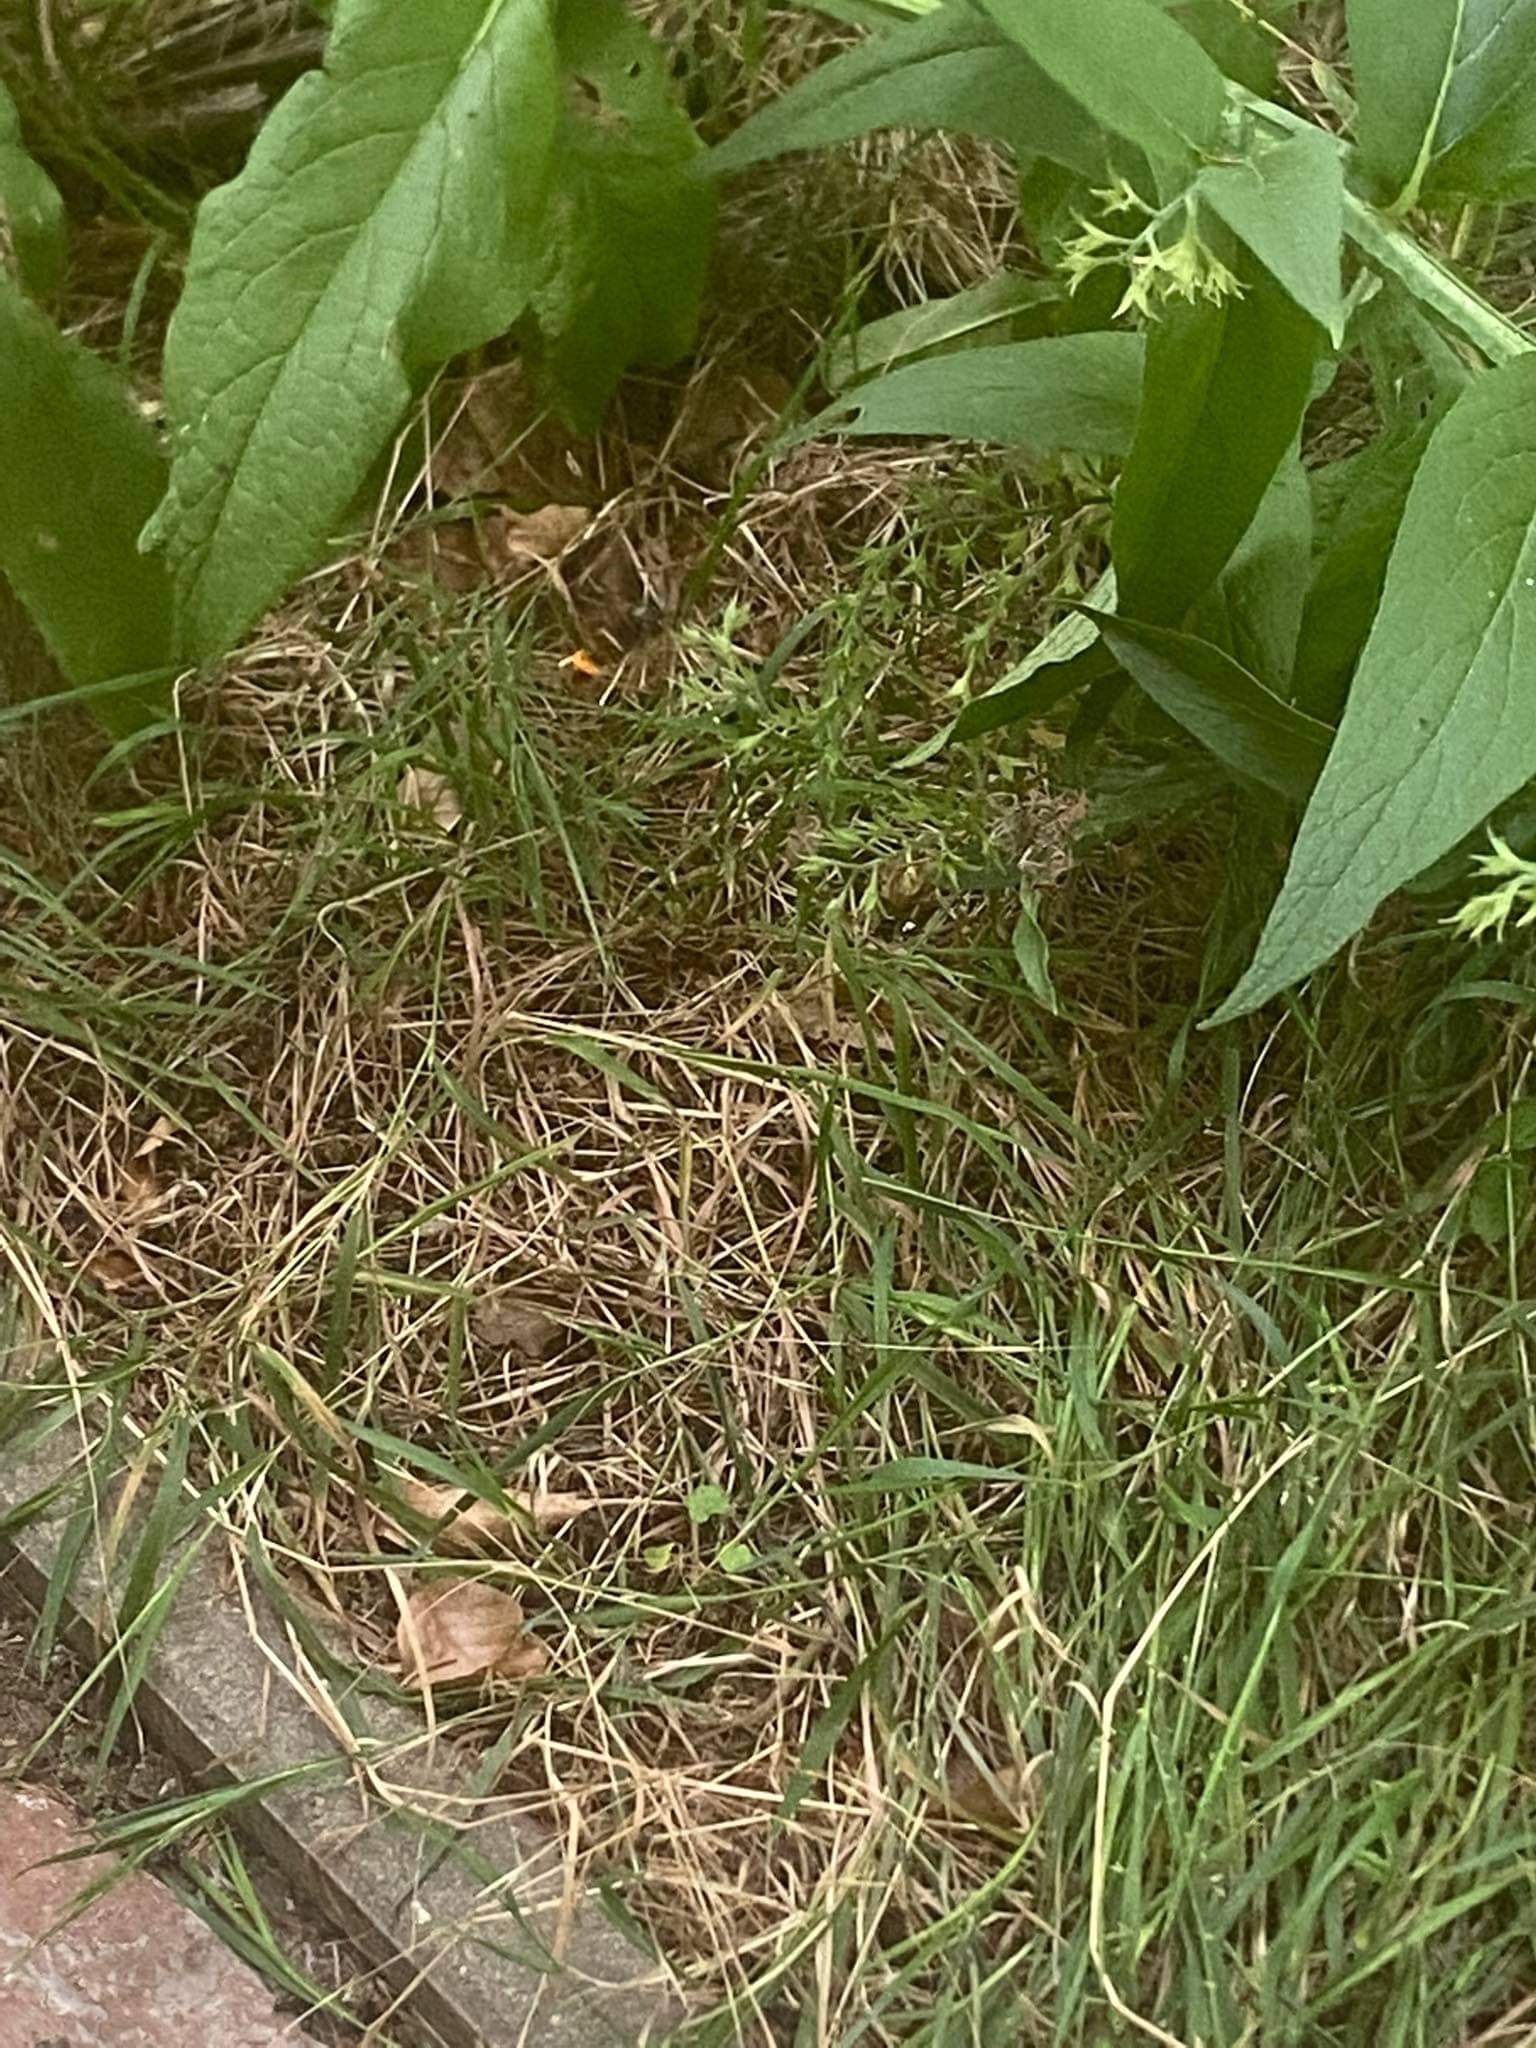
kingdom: Animalia
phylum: Arthropoda
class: Insecta
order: Hymenoptera
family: Vespidae
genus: Vespa
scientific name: Vespa velutina
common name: Asian hornet
